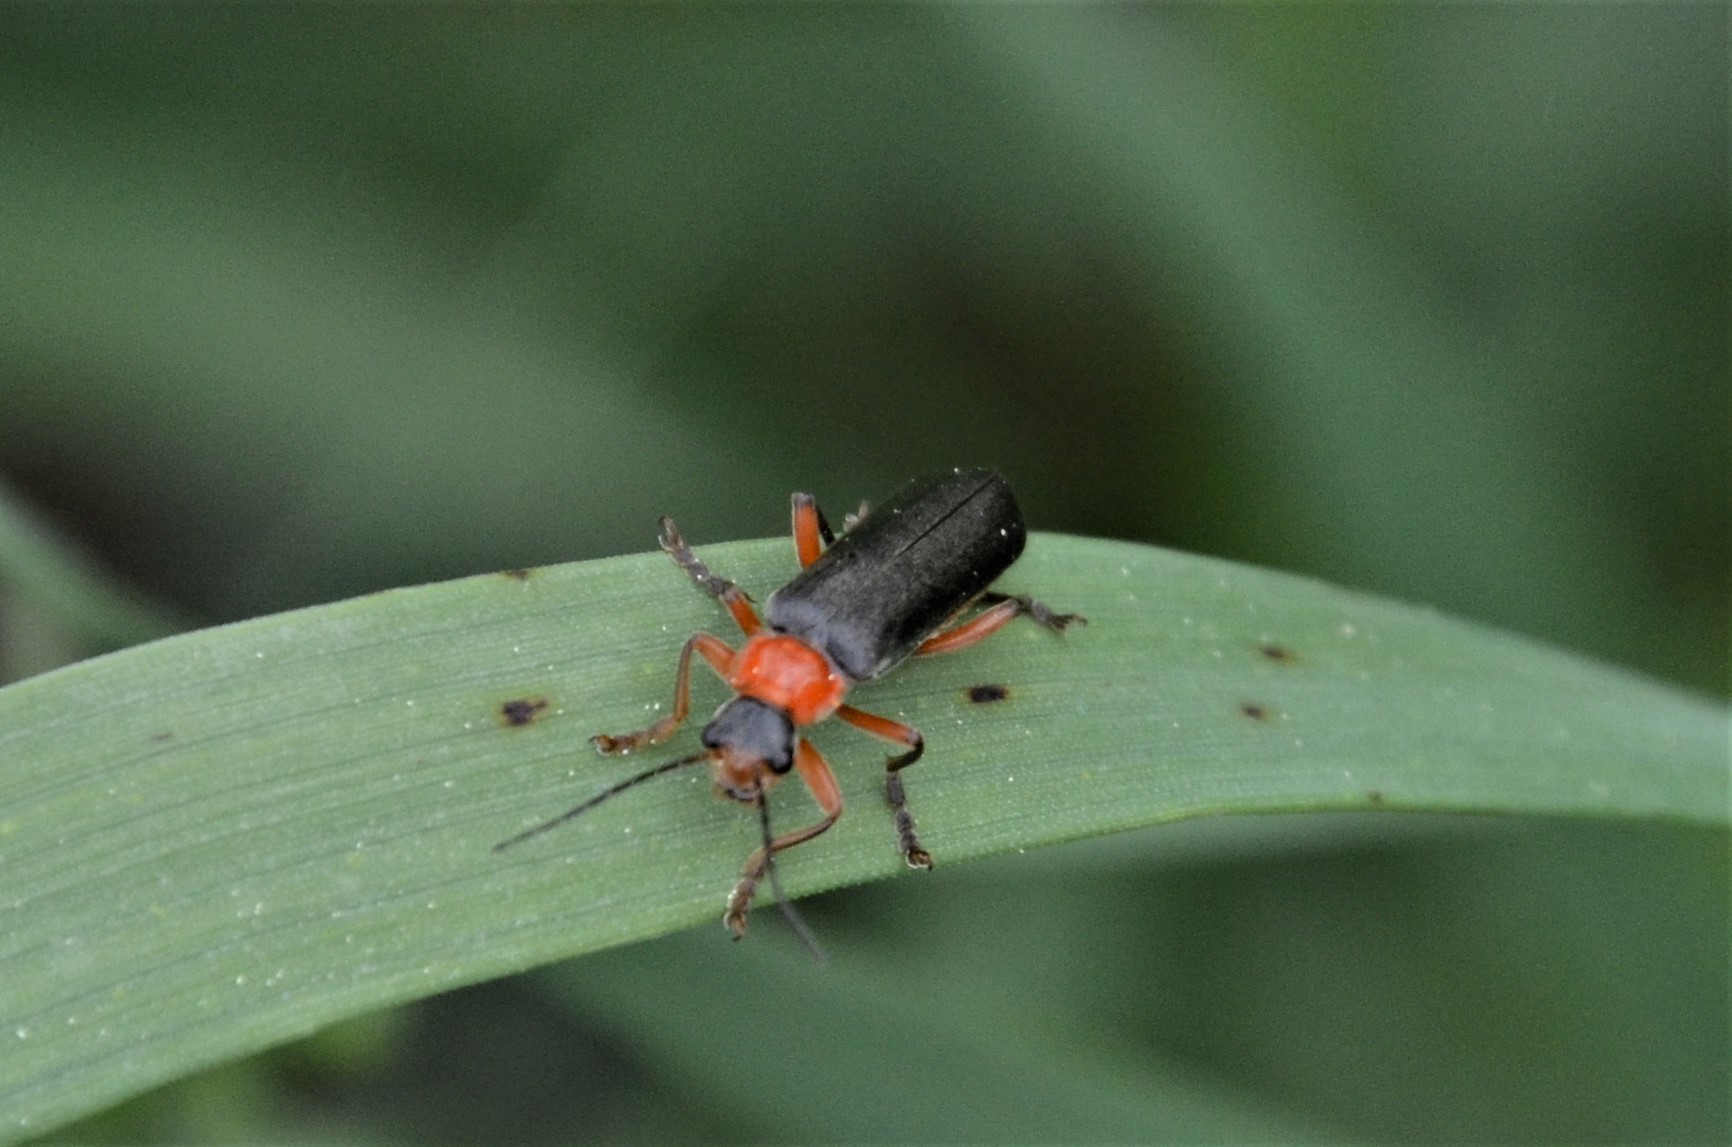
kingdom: Animalia
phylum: Arthropoda
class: Insecta
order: Coleoptera
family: Cantharidae
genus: Cantharis
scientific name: Cantharis pellucida
